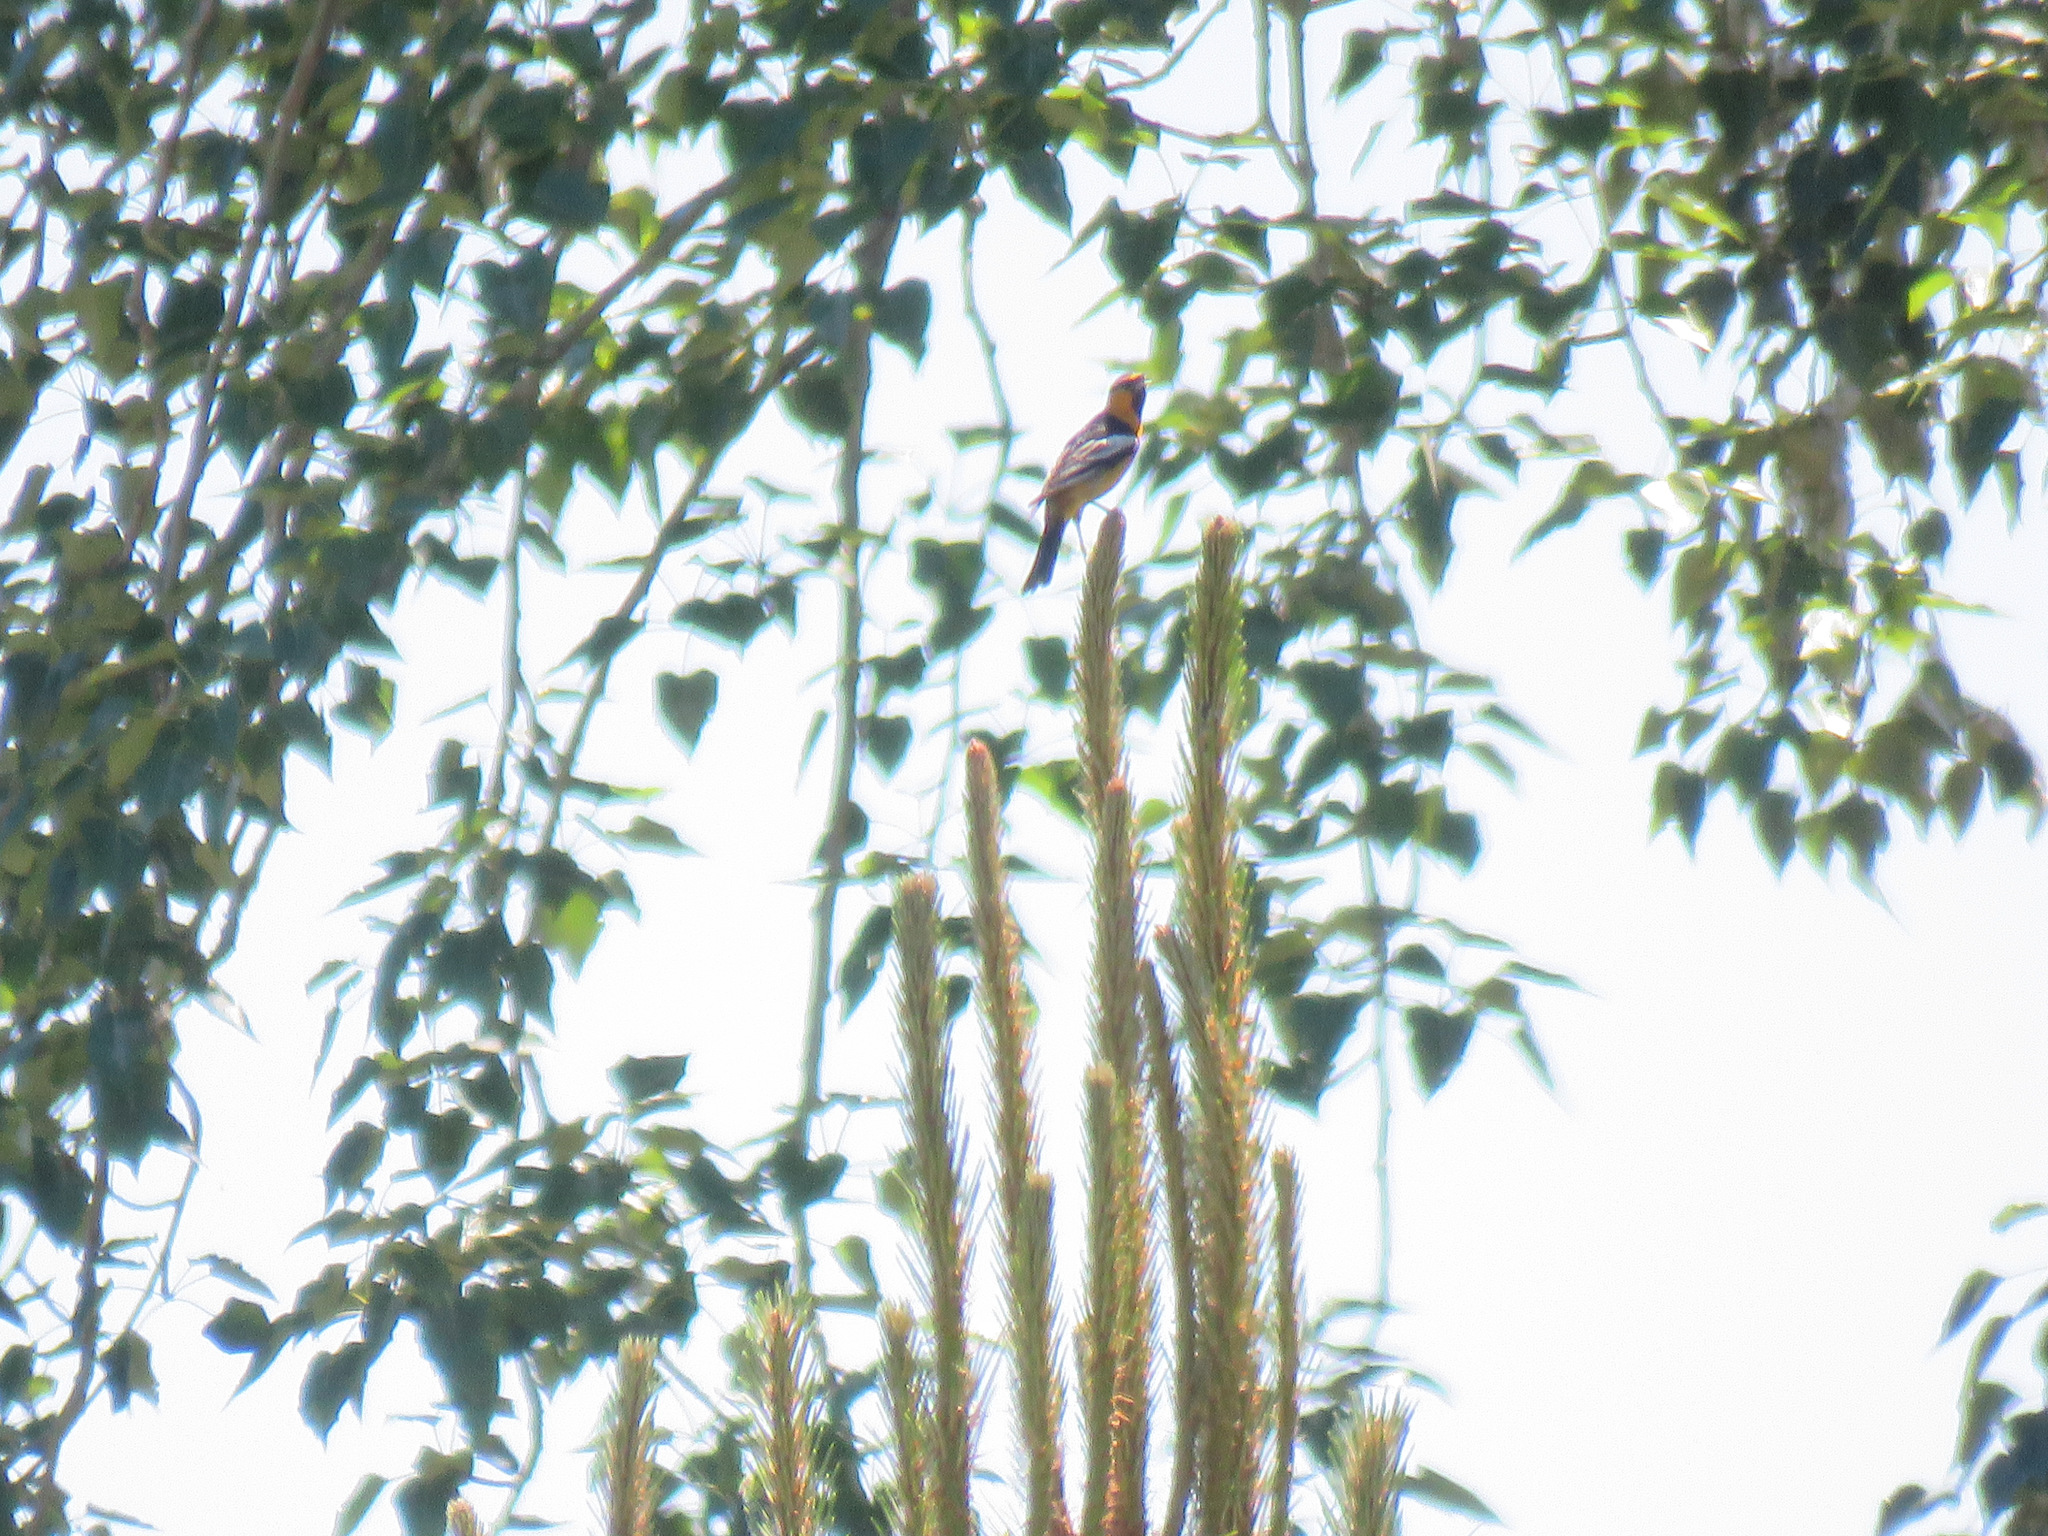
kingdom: Animalia
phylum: Chordata
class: Aves
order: Passeriformes
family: Icteridae
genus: Icterus
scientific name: Icterus bullockii
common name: Bullock's oriole
